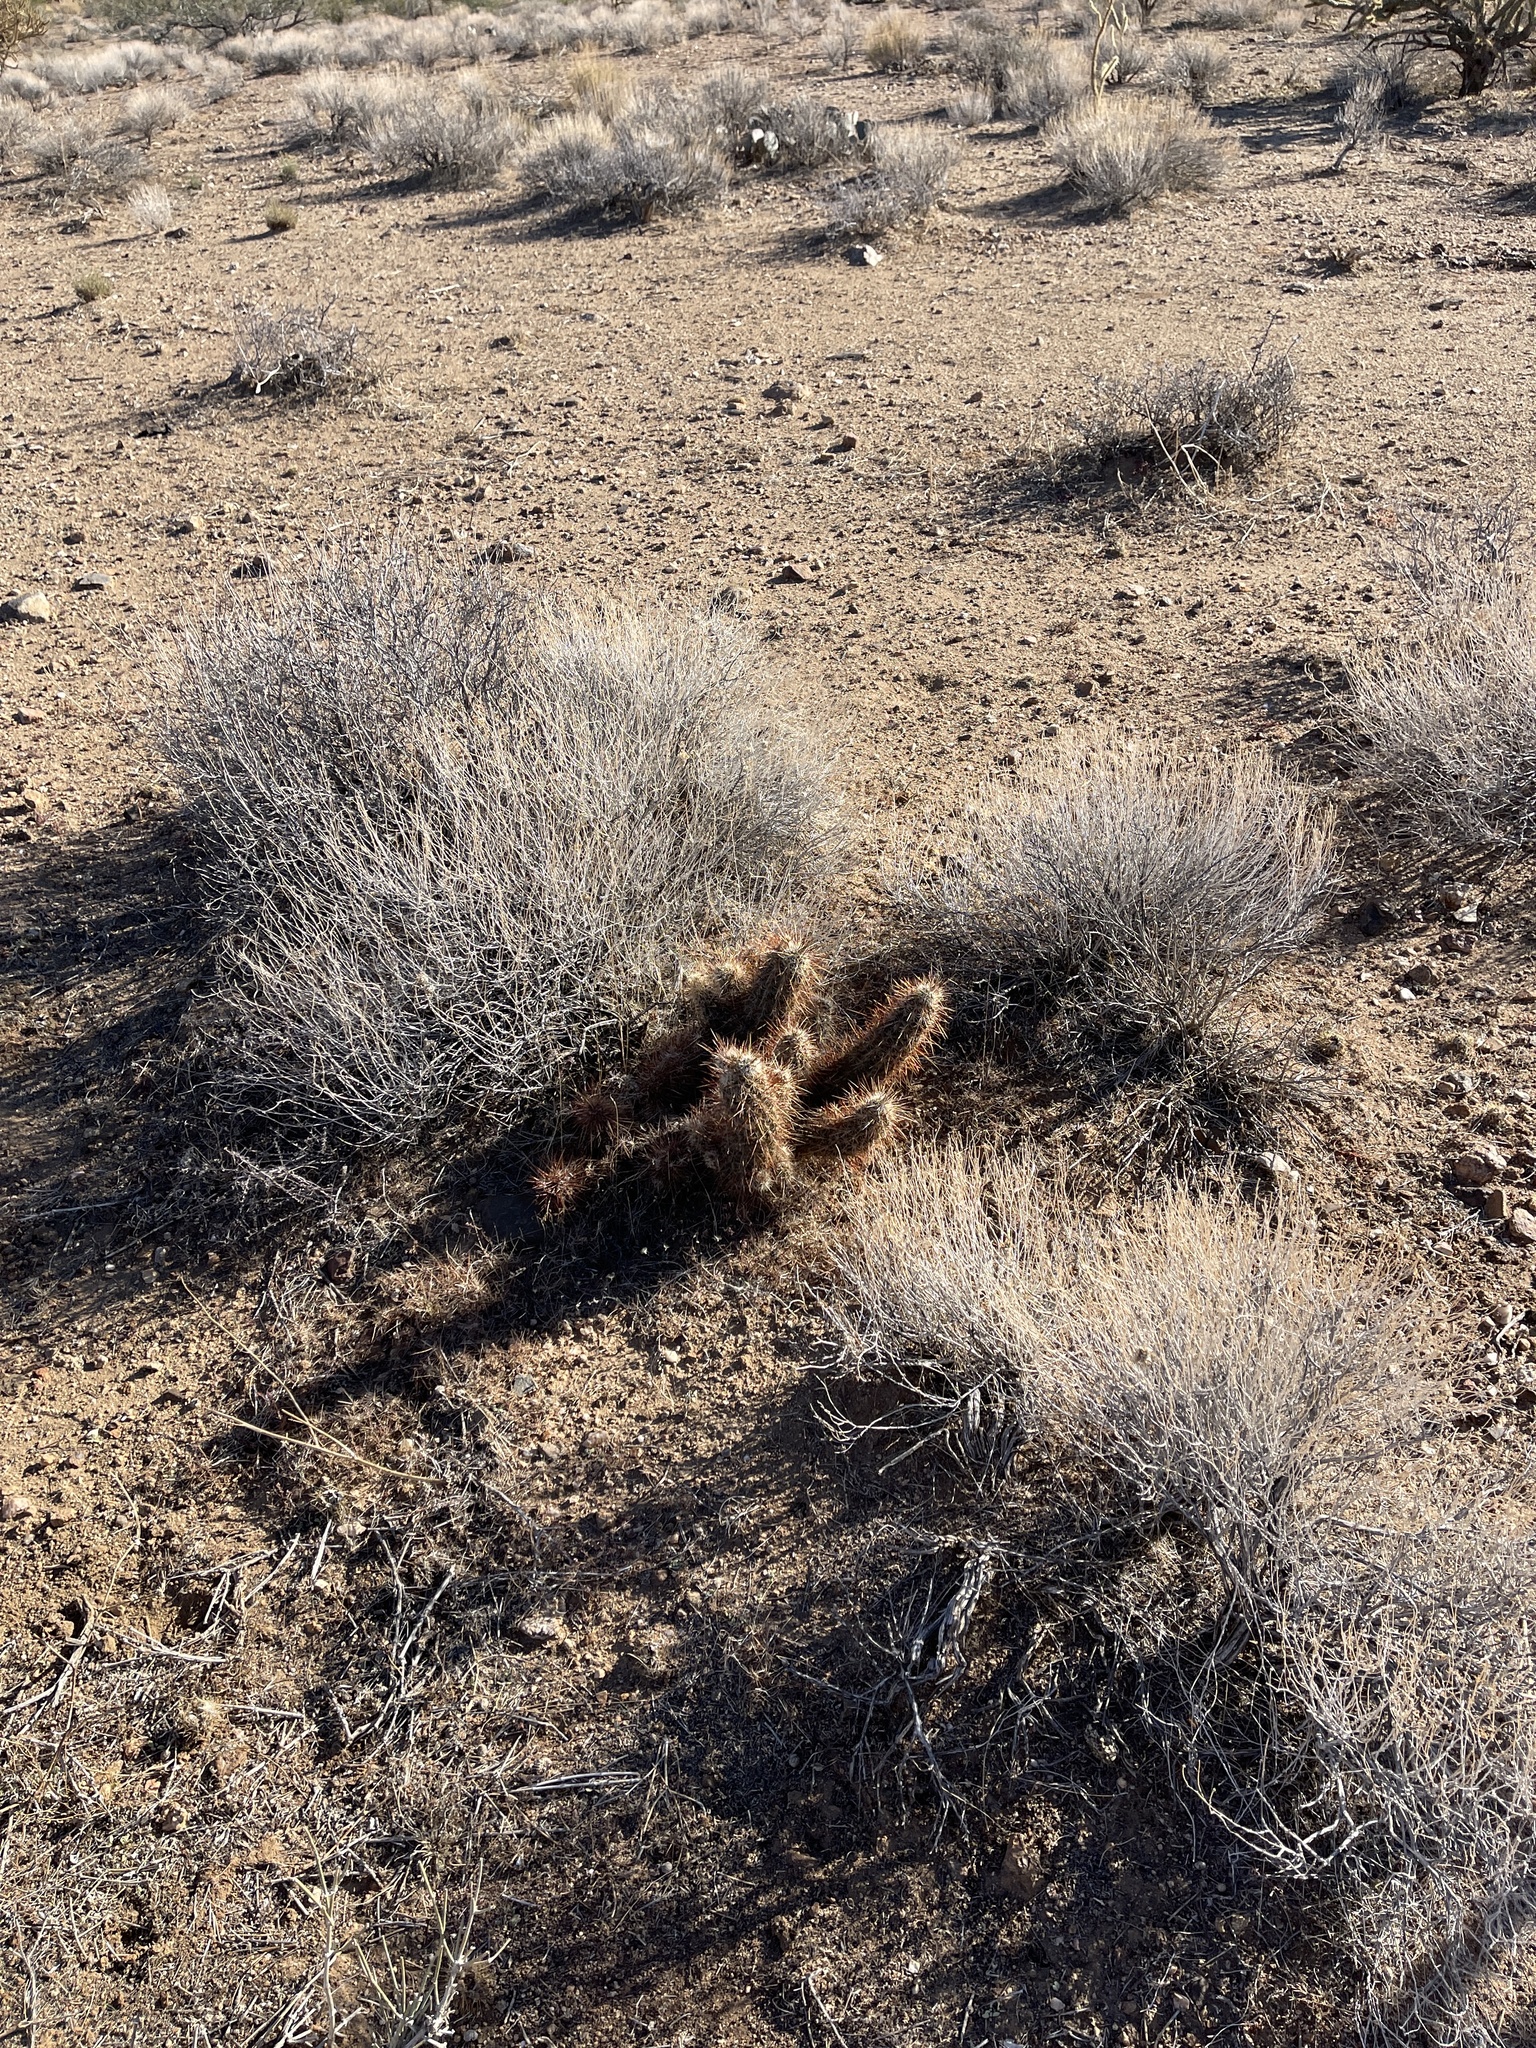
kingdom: Plantae
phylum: Tracheophyta
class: Magnoliopsida
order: Caryophyllales
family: Cactaceae
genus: Echinocereus
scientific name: Echinocereus engelmannii
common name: Engelmann's hedgehog cactus
